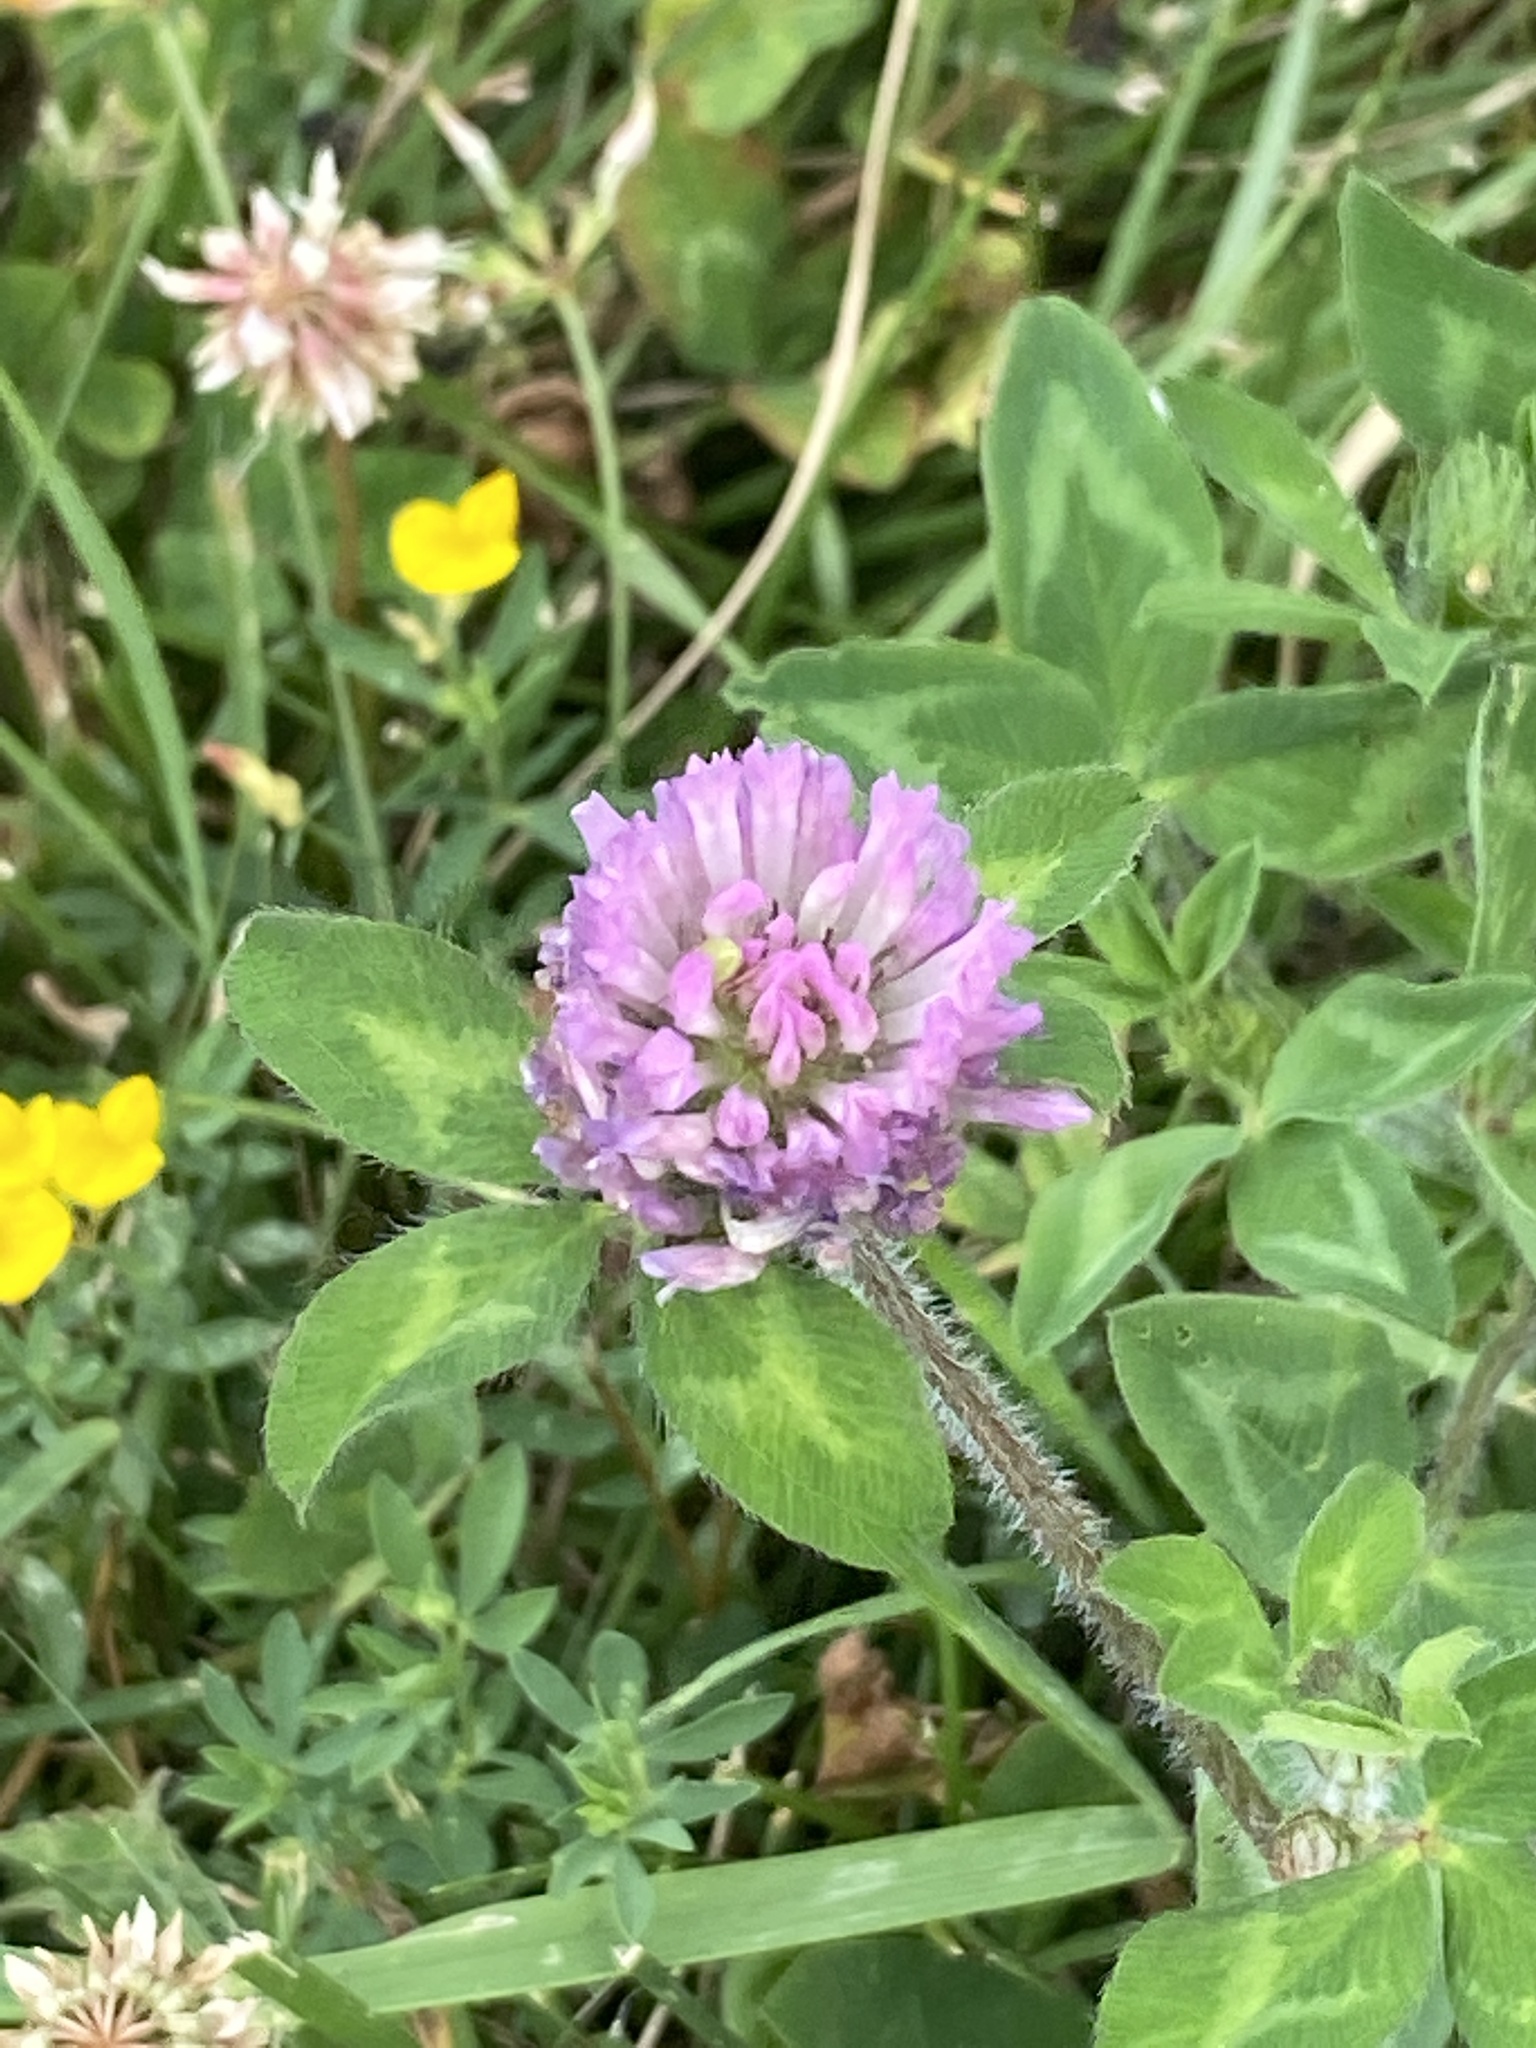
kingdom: Plantae
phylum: Tracheophyta
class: Magnoliopsida
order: Fabales
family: Fabaceae
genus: Trifolium
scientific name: Trifolium pratense
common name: Red clover
